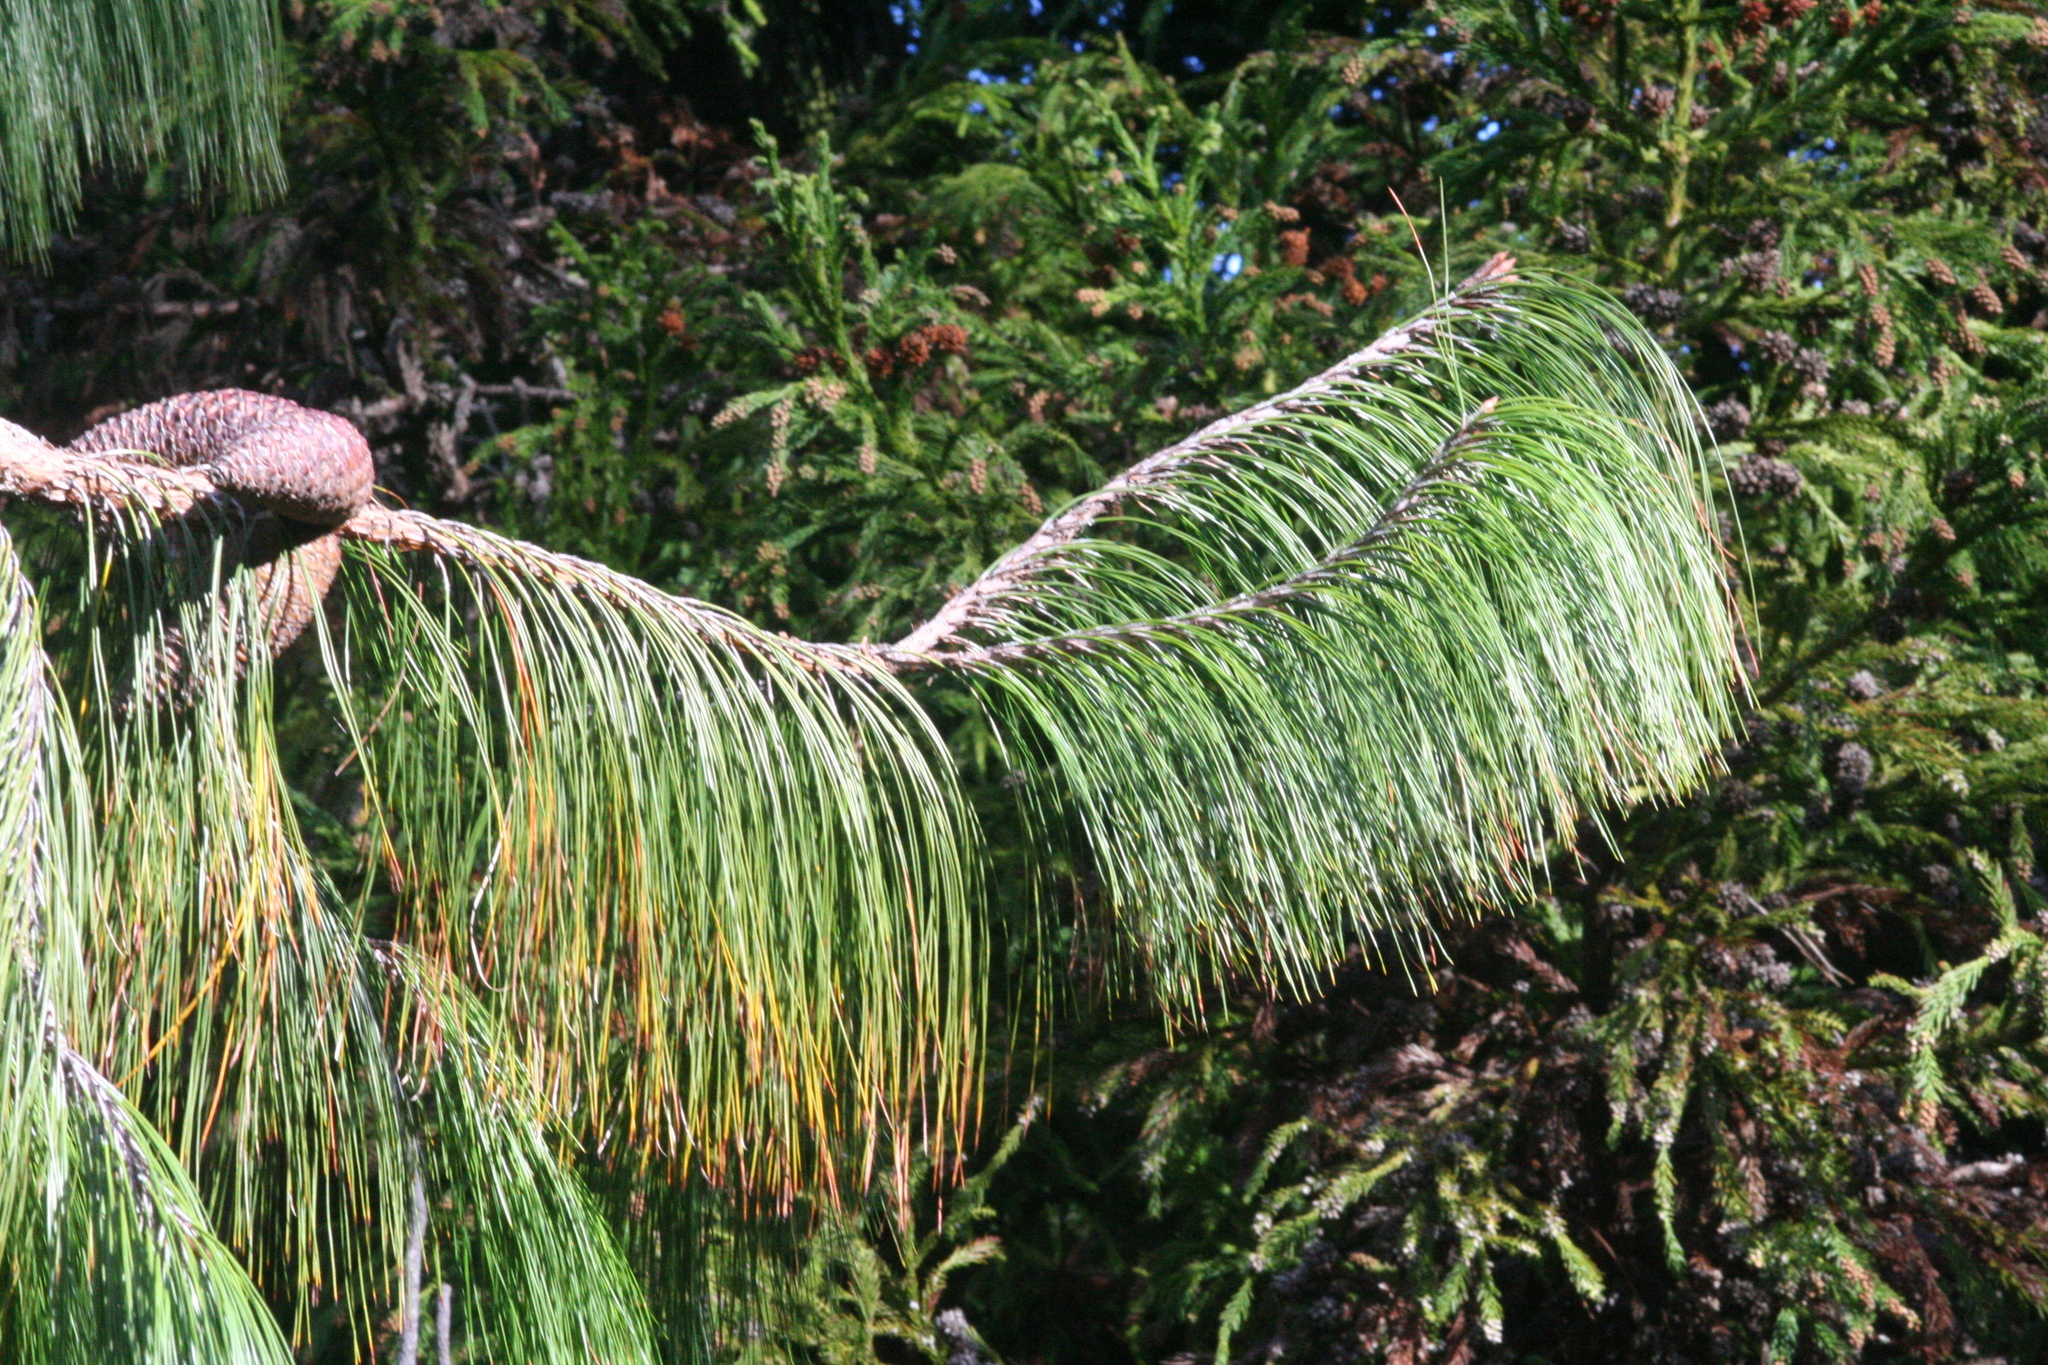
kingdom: Plantae
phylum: Tracheophyta
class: Pinopsida
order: Pinales
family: Pinaceae
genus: Pinus
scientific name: Pinus patula
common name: Mexican weeping pine
